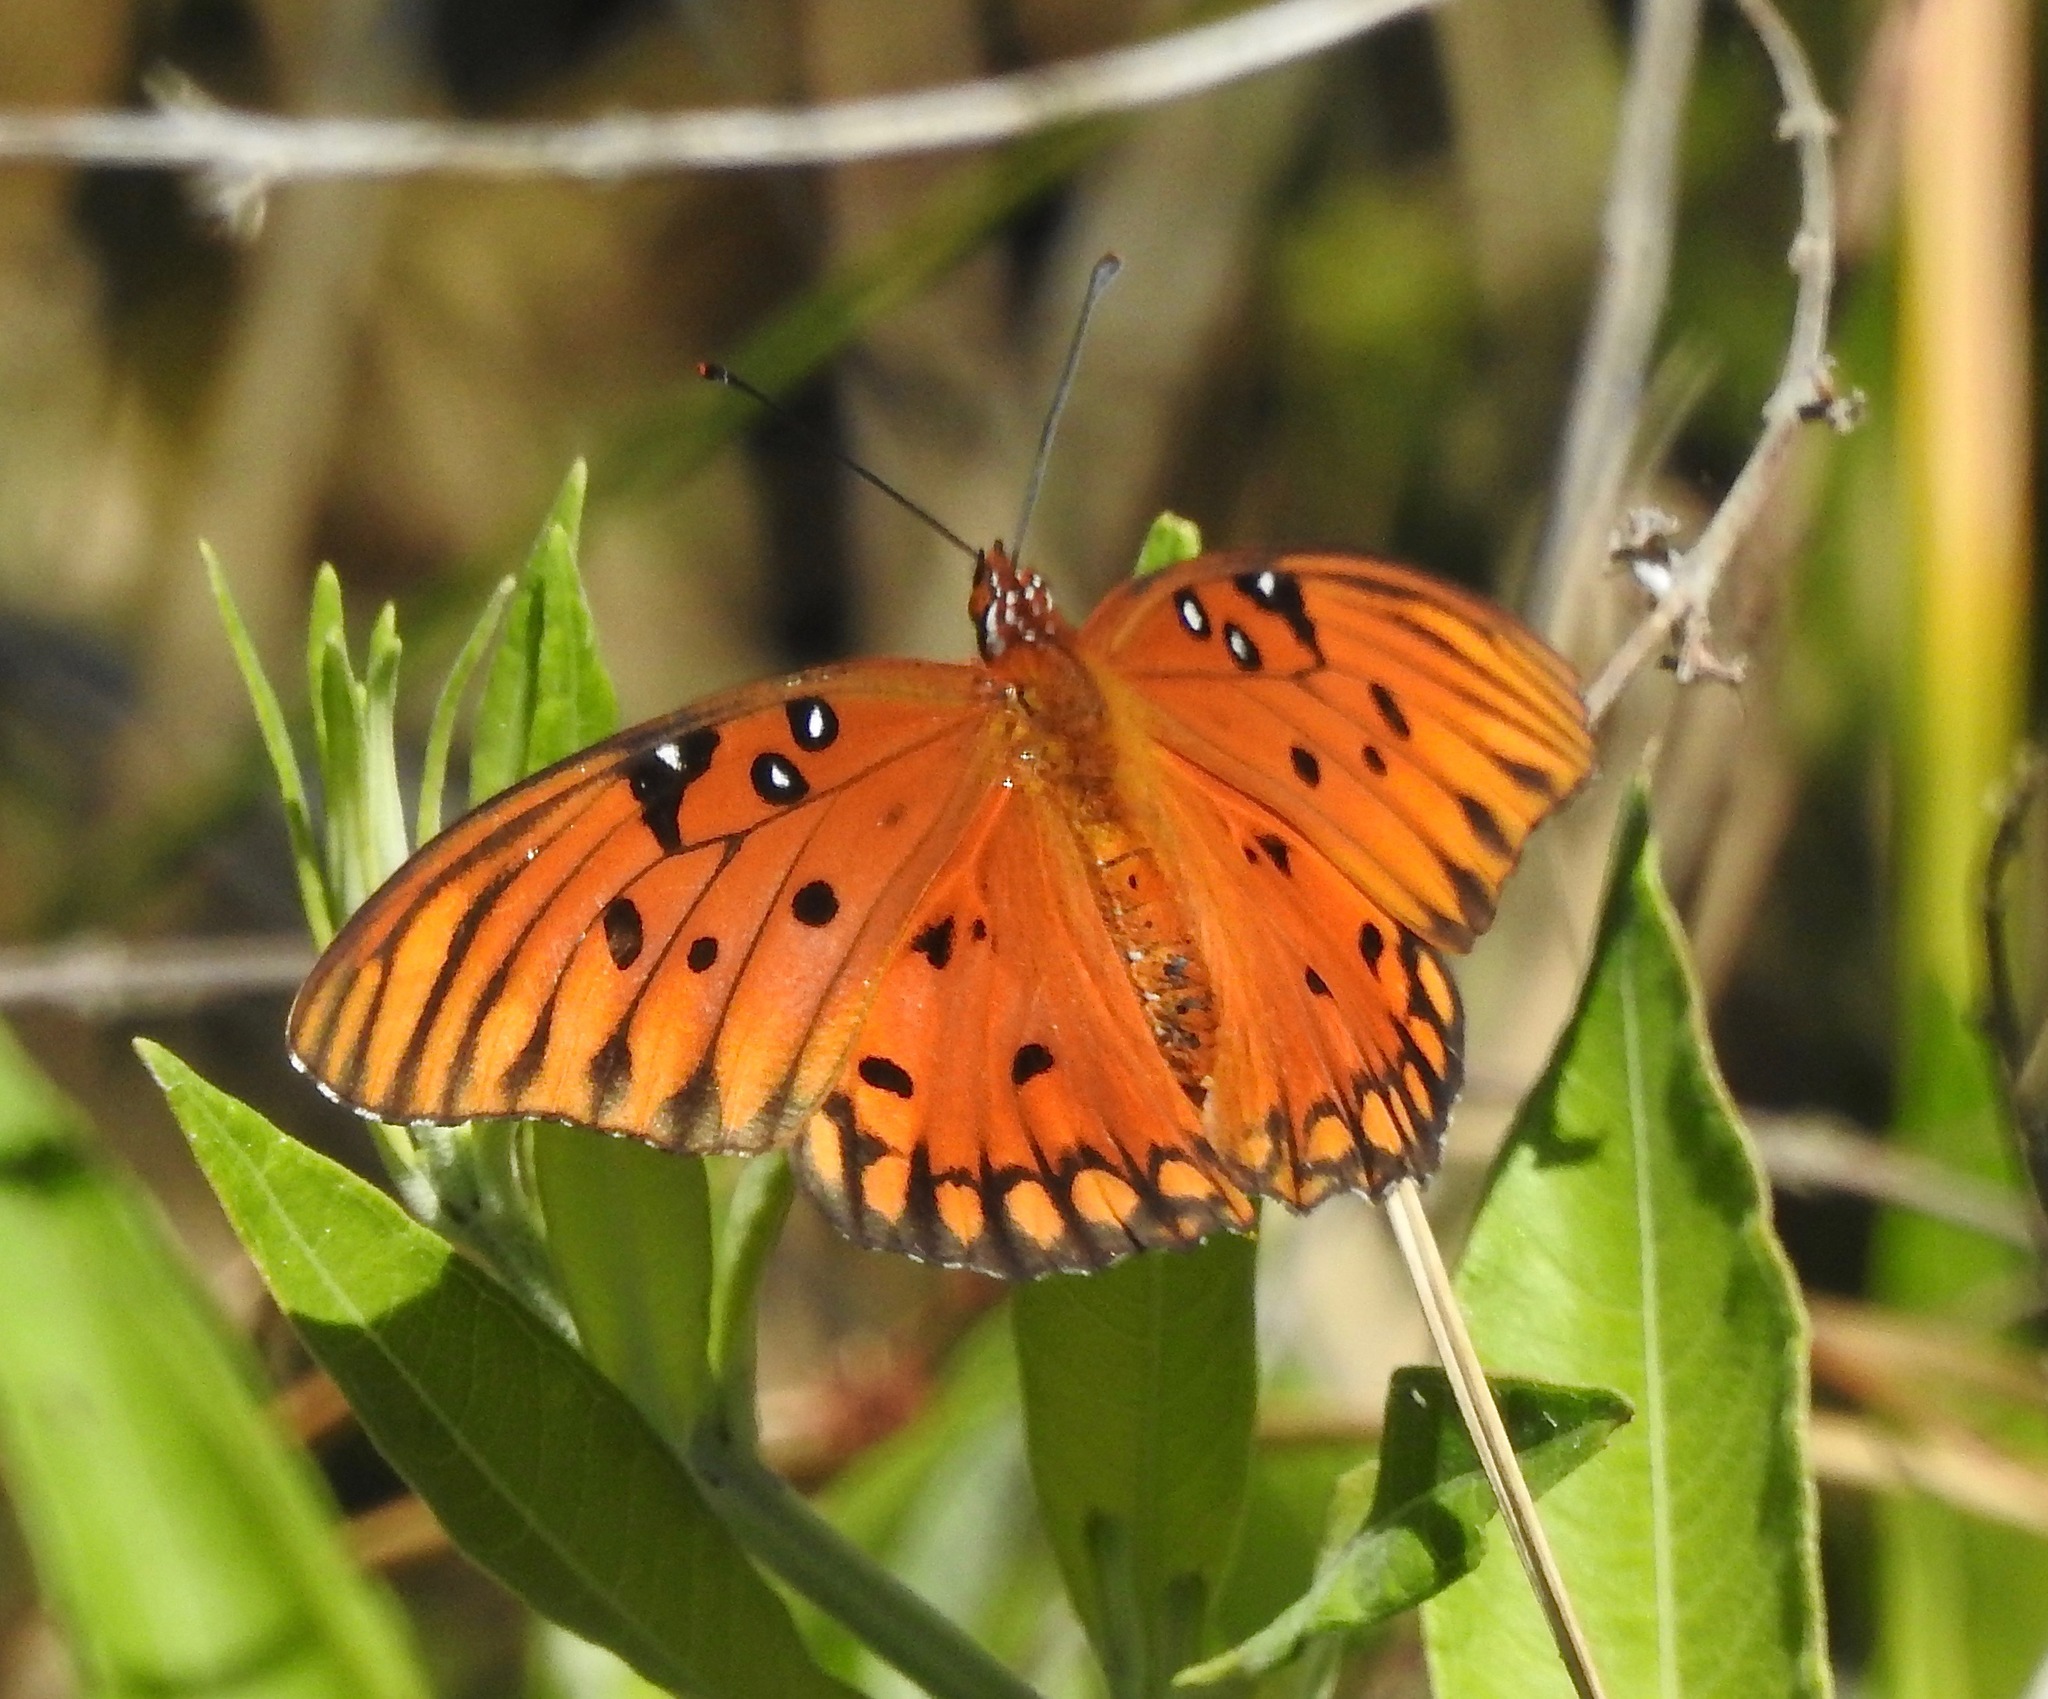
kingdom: Animalia
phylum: Arthropoda
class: Insecta
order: Lepidoptera
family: Nymphalidae
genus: Dione
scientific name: Dione vanillae
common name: Gulf fritillary
